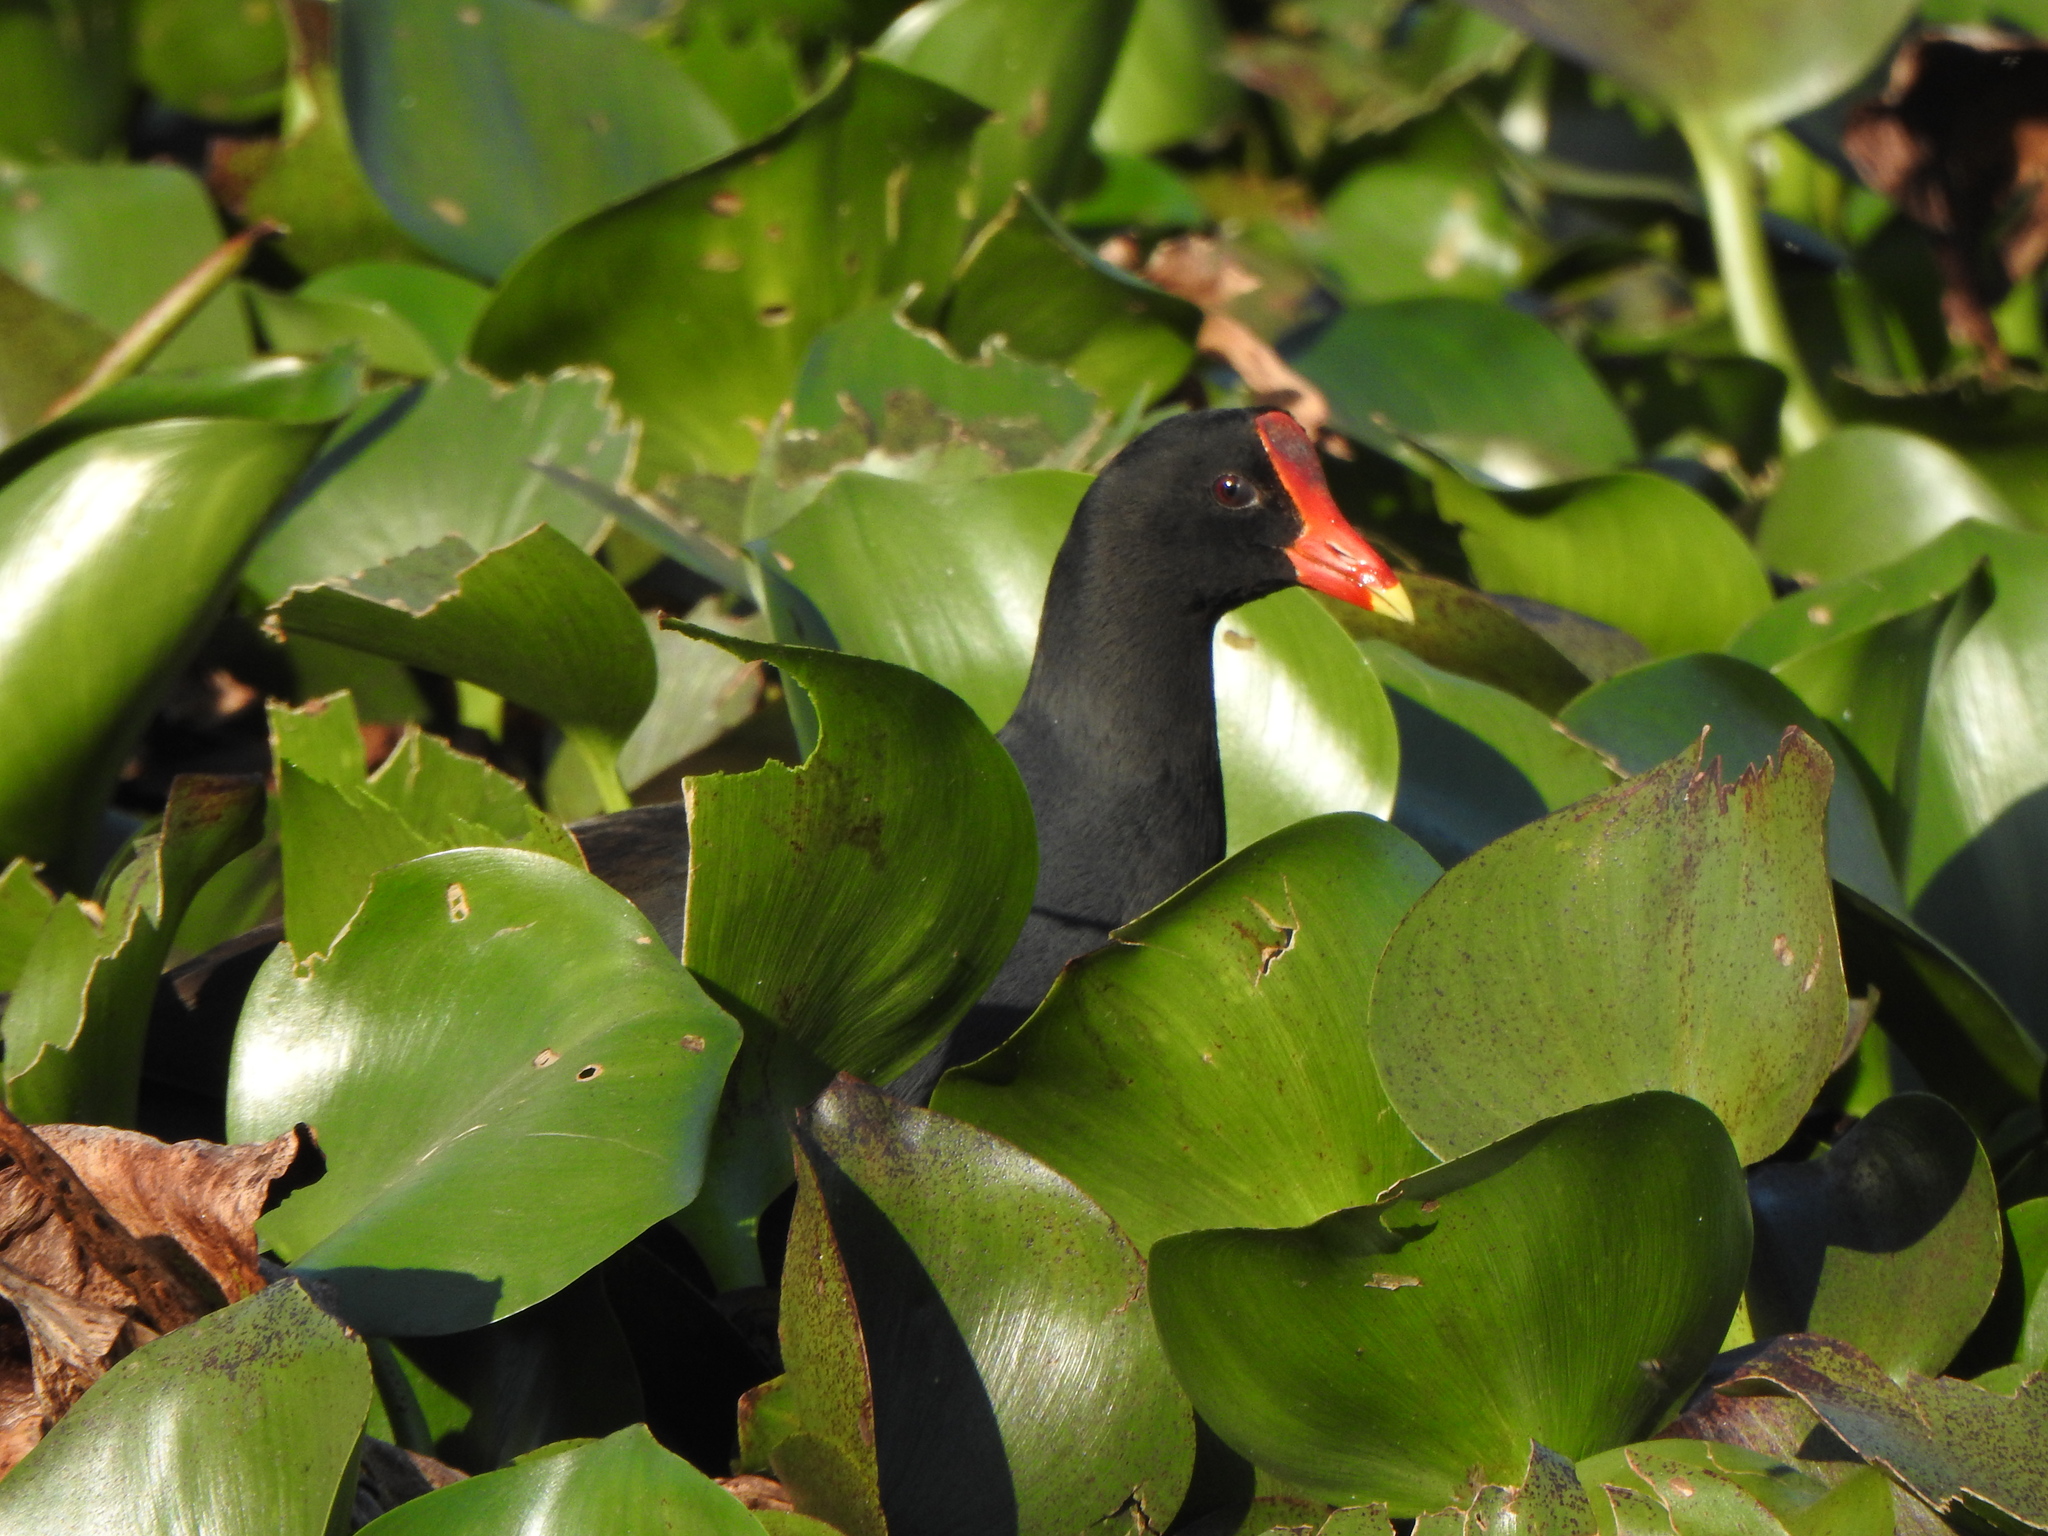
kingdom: Animalia
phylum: Chordata
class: Aves
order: Gruiformes
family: Rallidae
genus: Gallinula
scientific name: Gallinula chloropus
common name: Common moorhen
